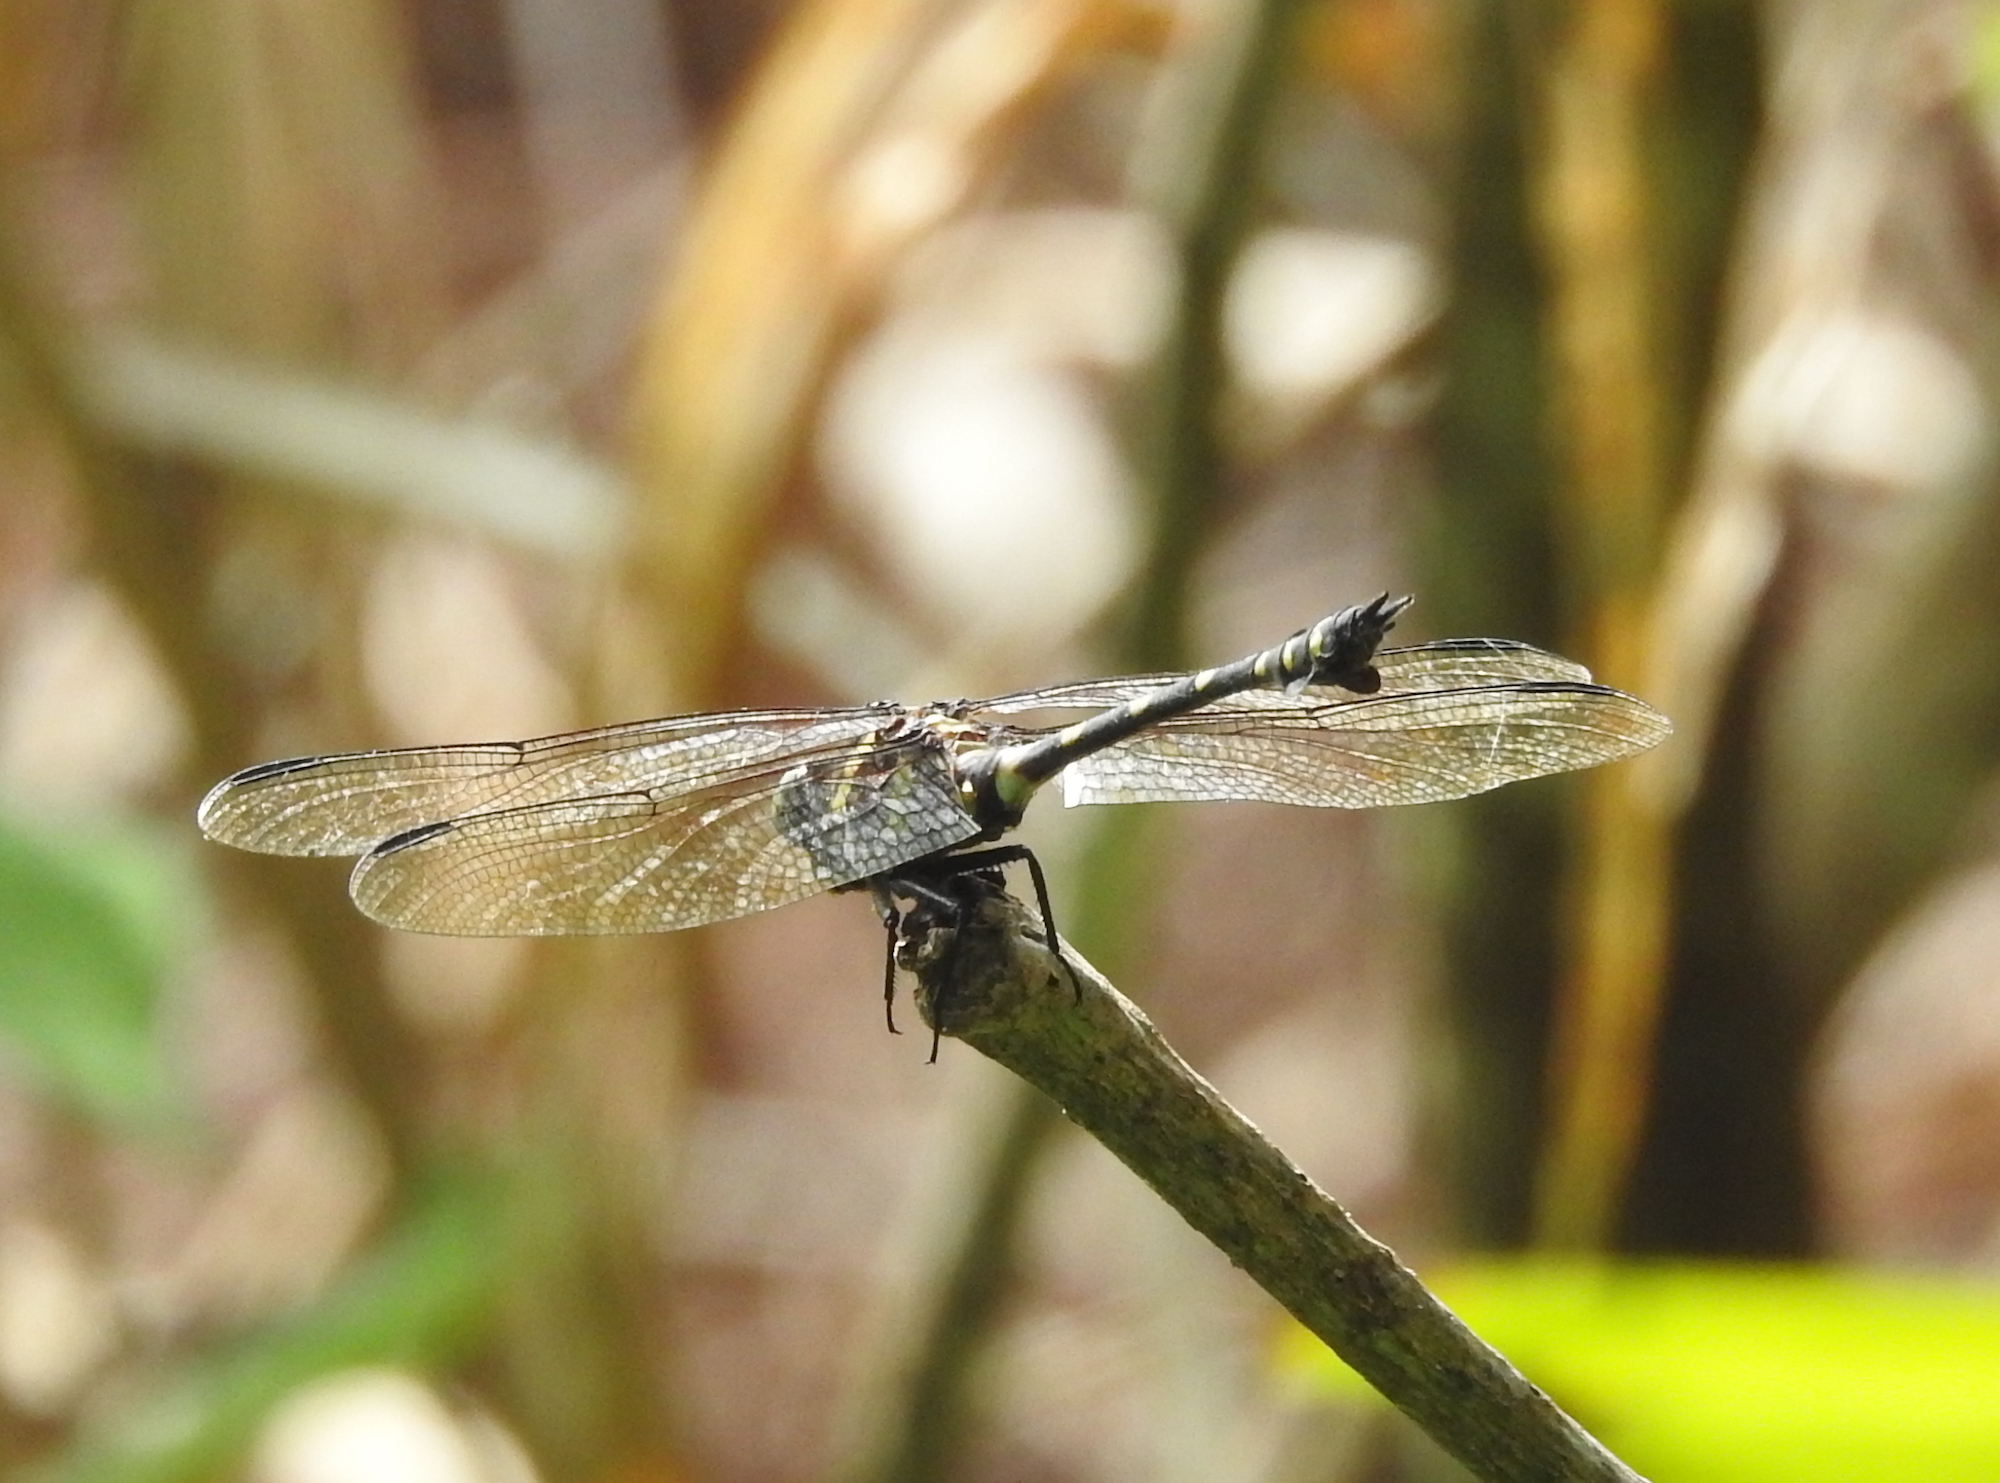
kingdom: Animalia
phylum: Arthropoda
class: Insecta
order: Odonata
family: Gomphidae
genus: Ictinogomphus
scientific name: Ictinogomphus decoratus
